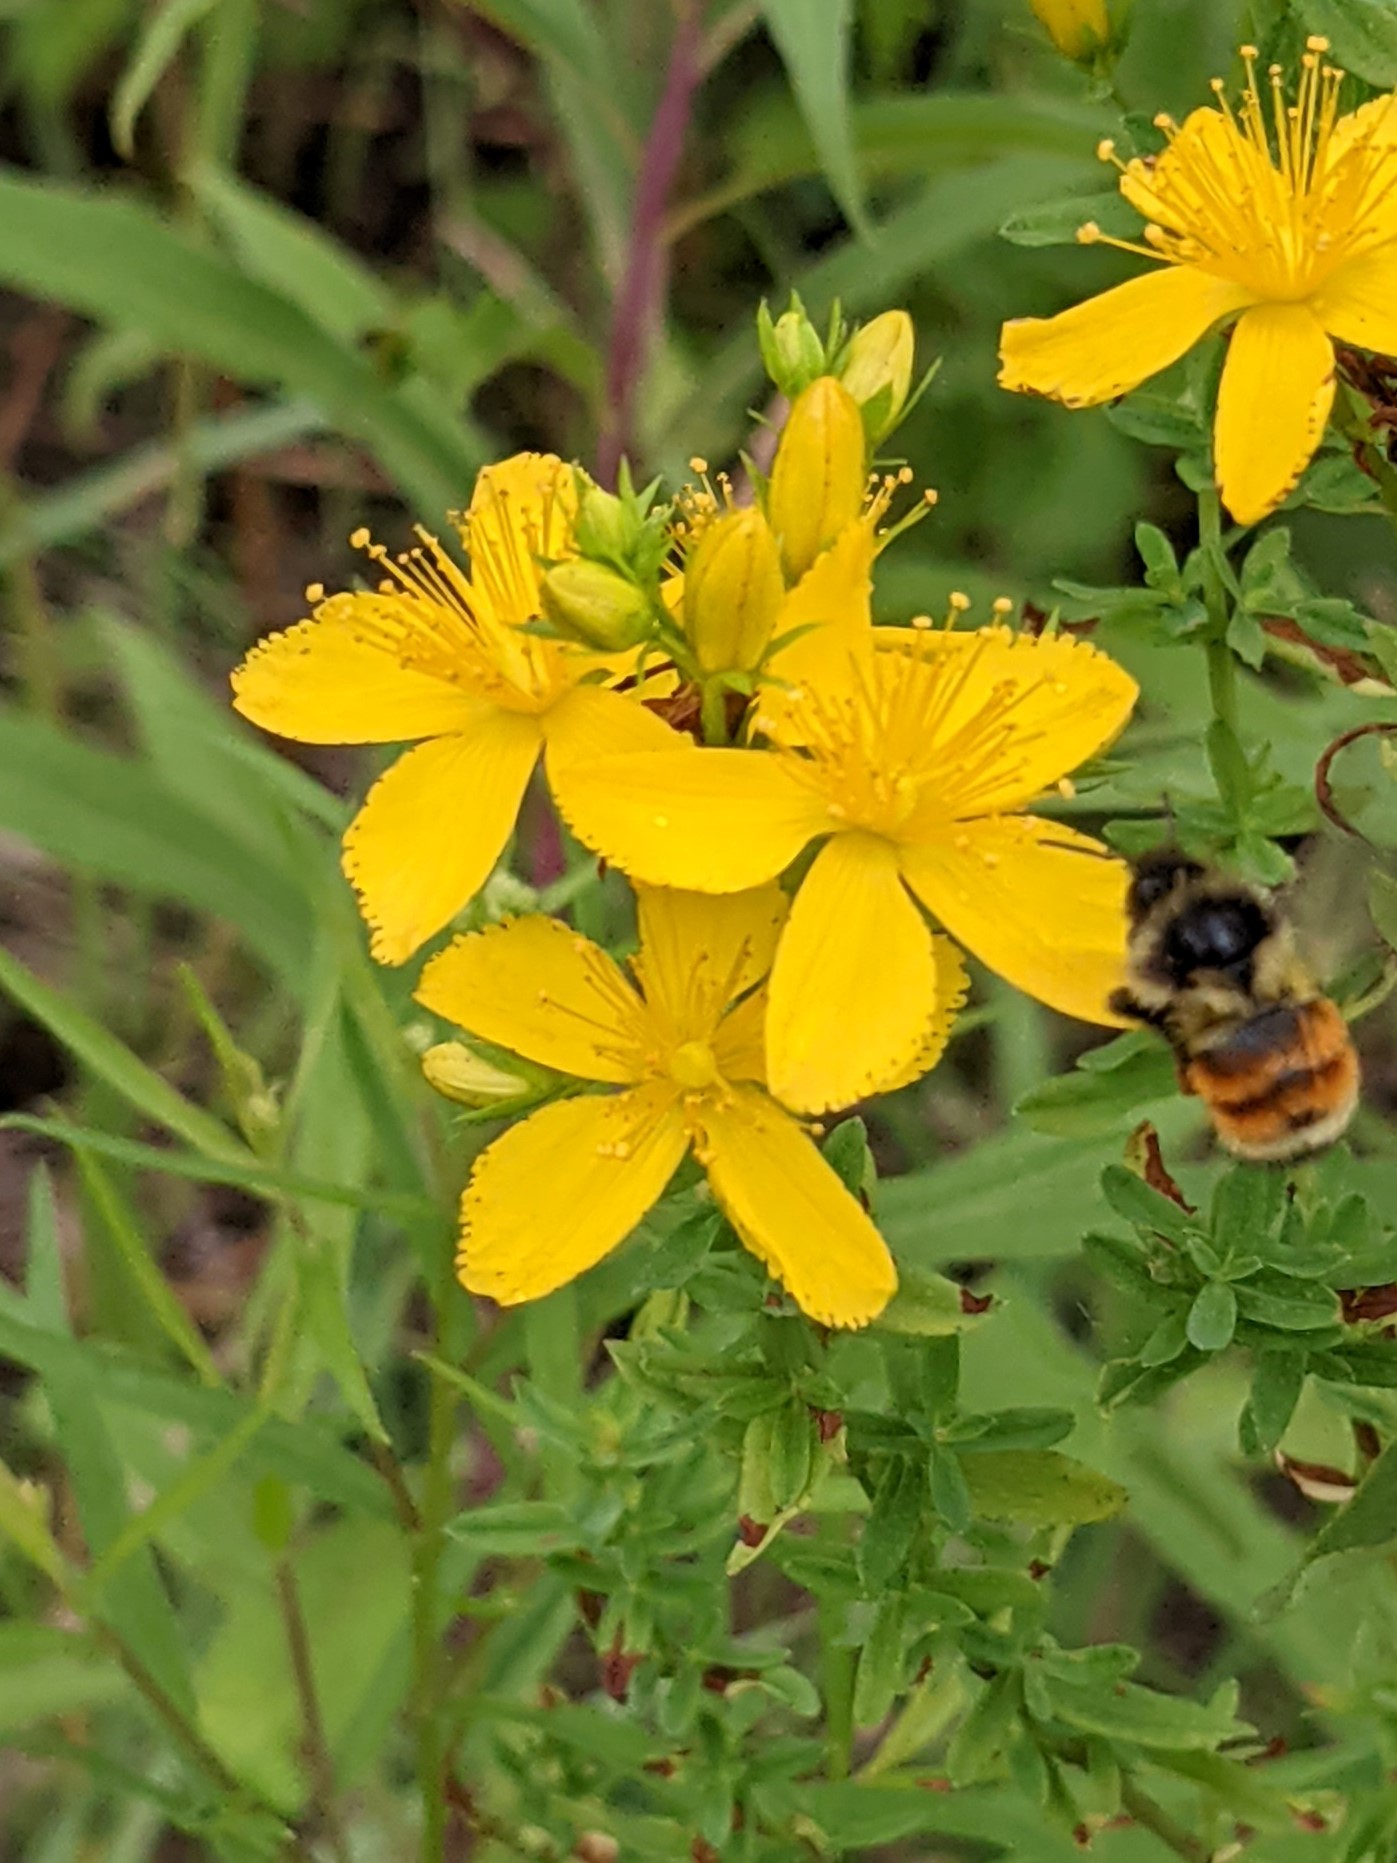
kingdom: Animalia
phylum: Arthropoda
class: Insecta
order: Hymenoptera
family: Apidae
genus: Bombus
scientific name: Bombus ternarius
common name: Tri-colored bumble bee
